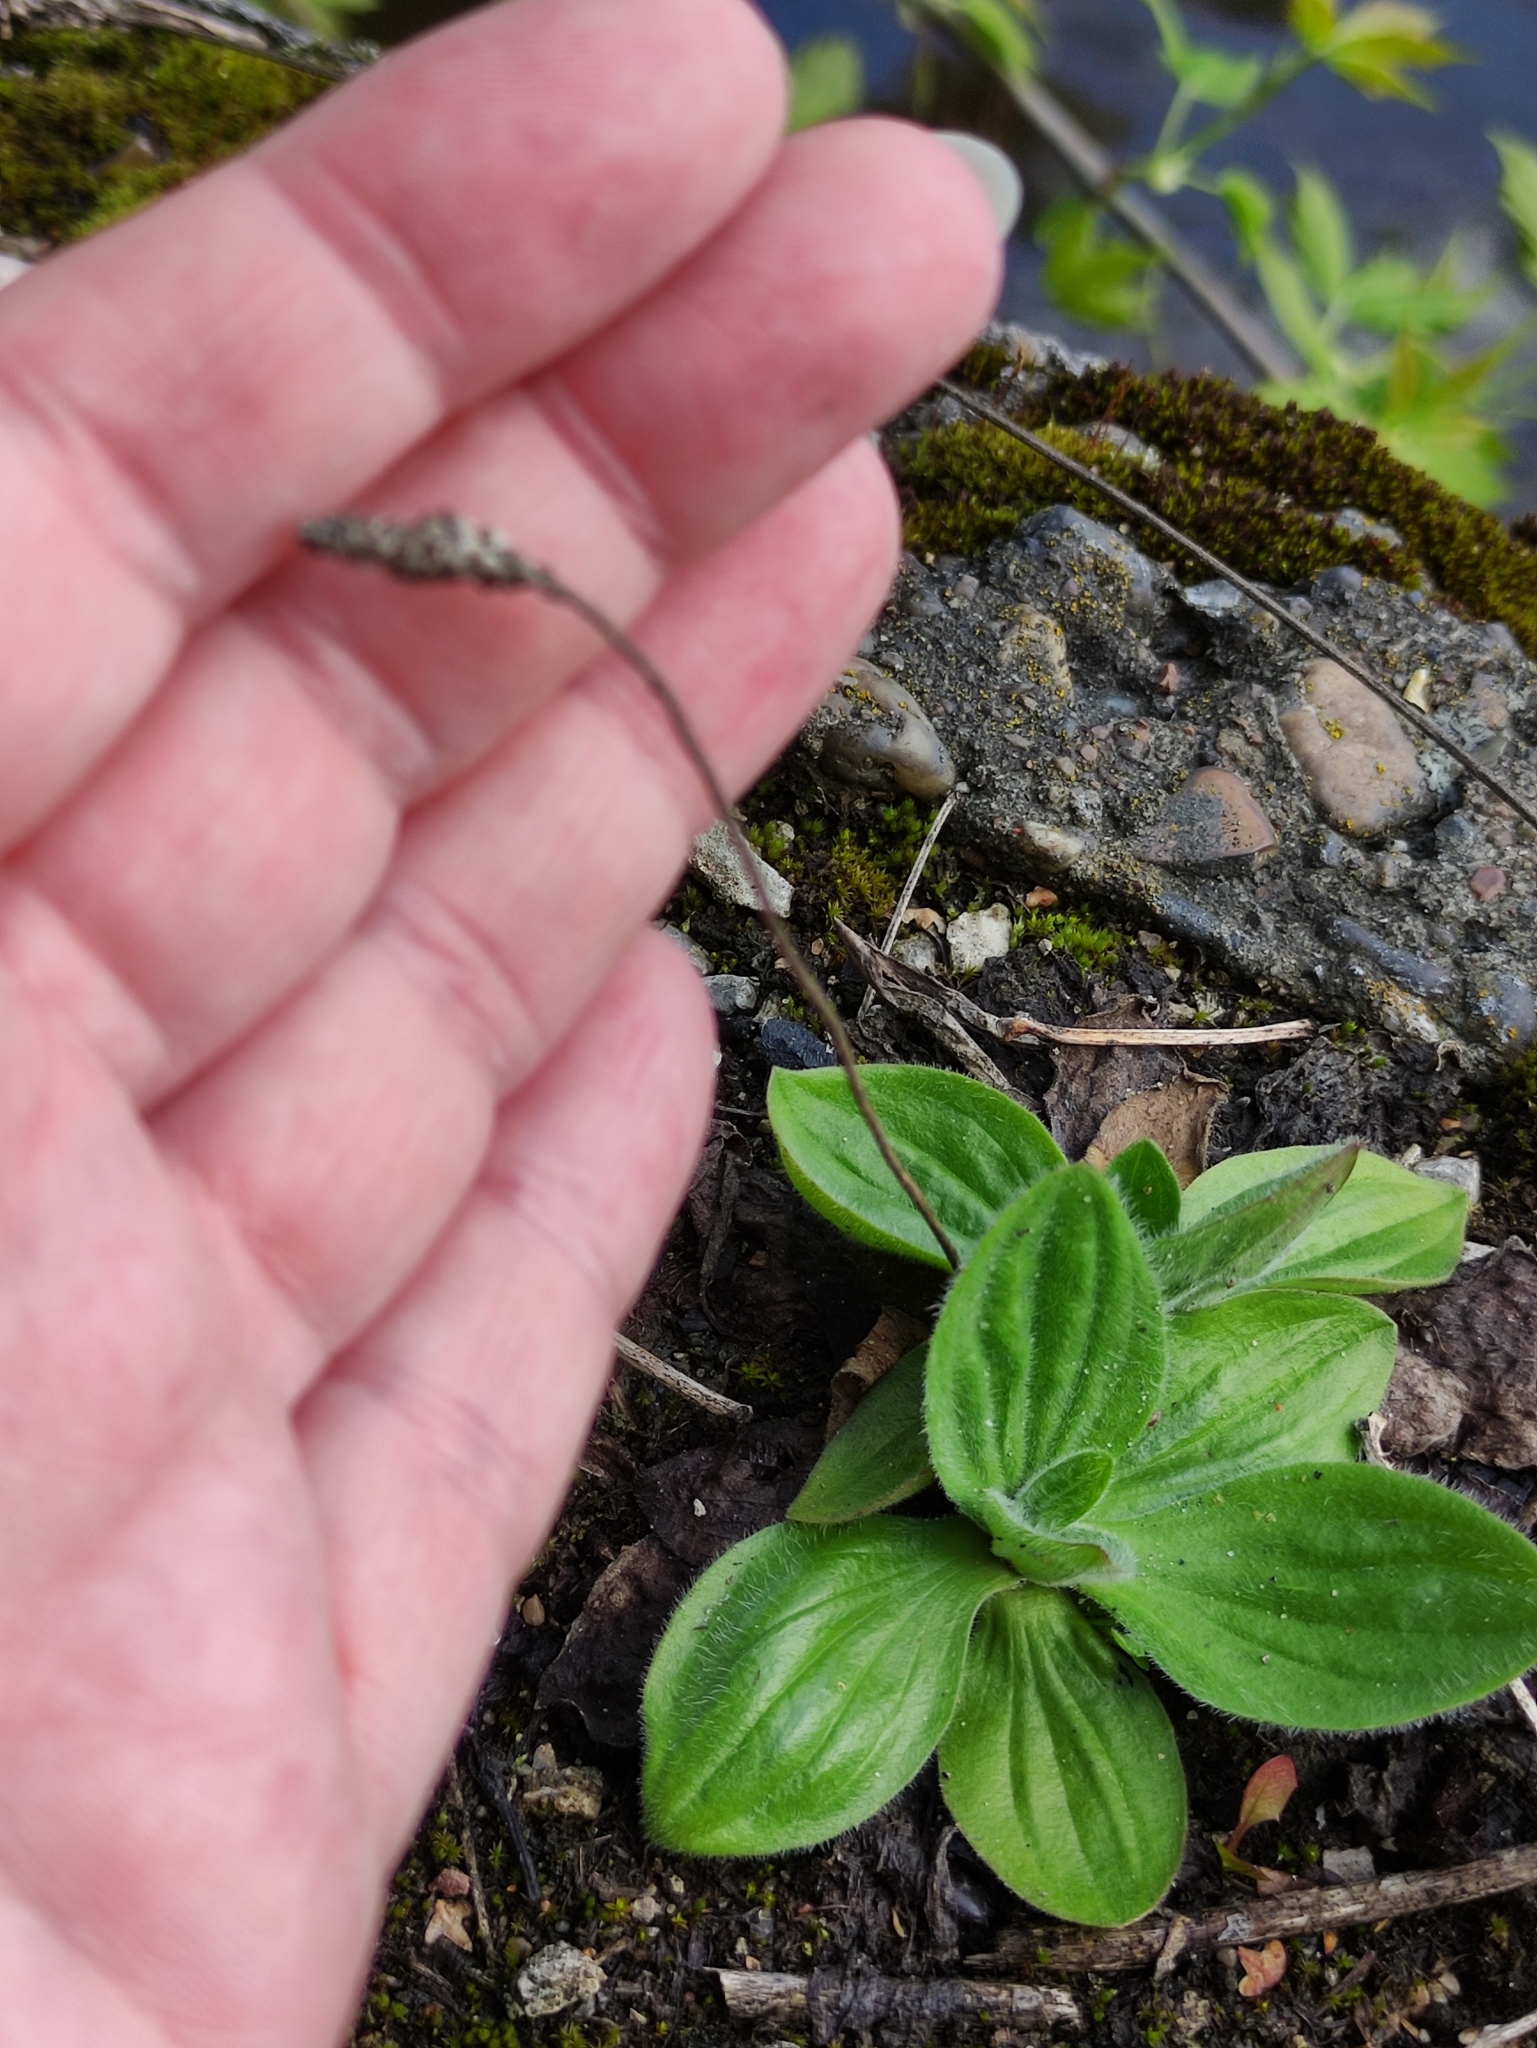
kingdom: Plantae
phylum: Tracheophyta
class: Magnoliopsida
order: Lamiales
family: Plantaginaceae
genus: Plantago
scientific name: Plantago media
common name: Hoary plantain
